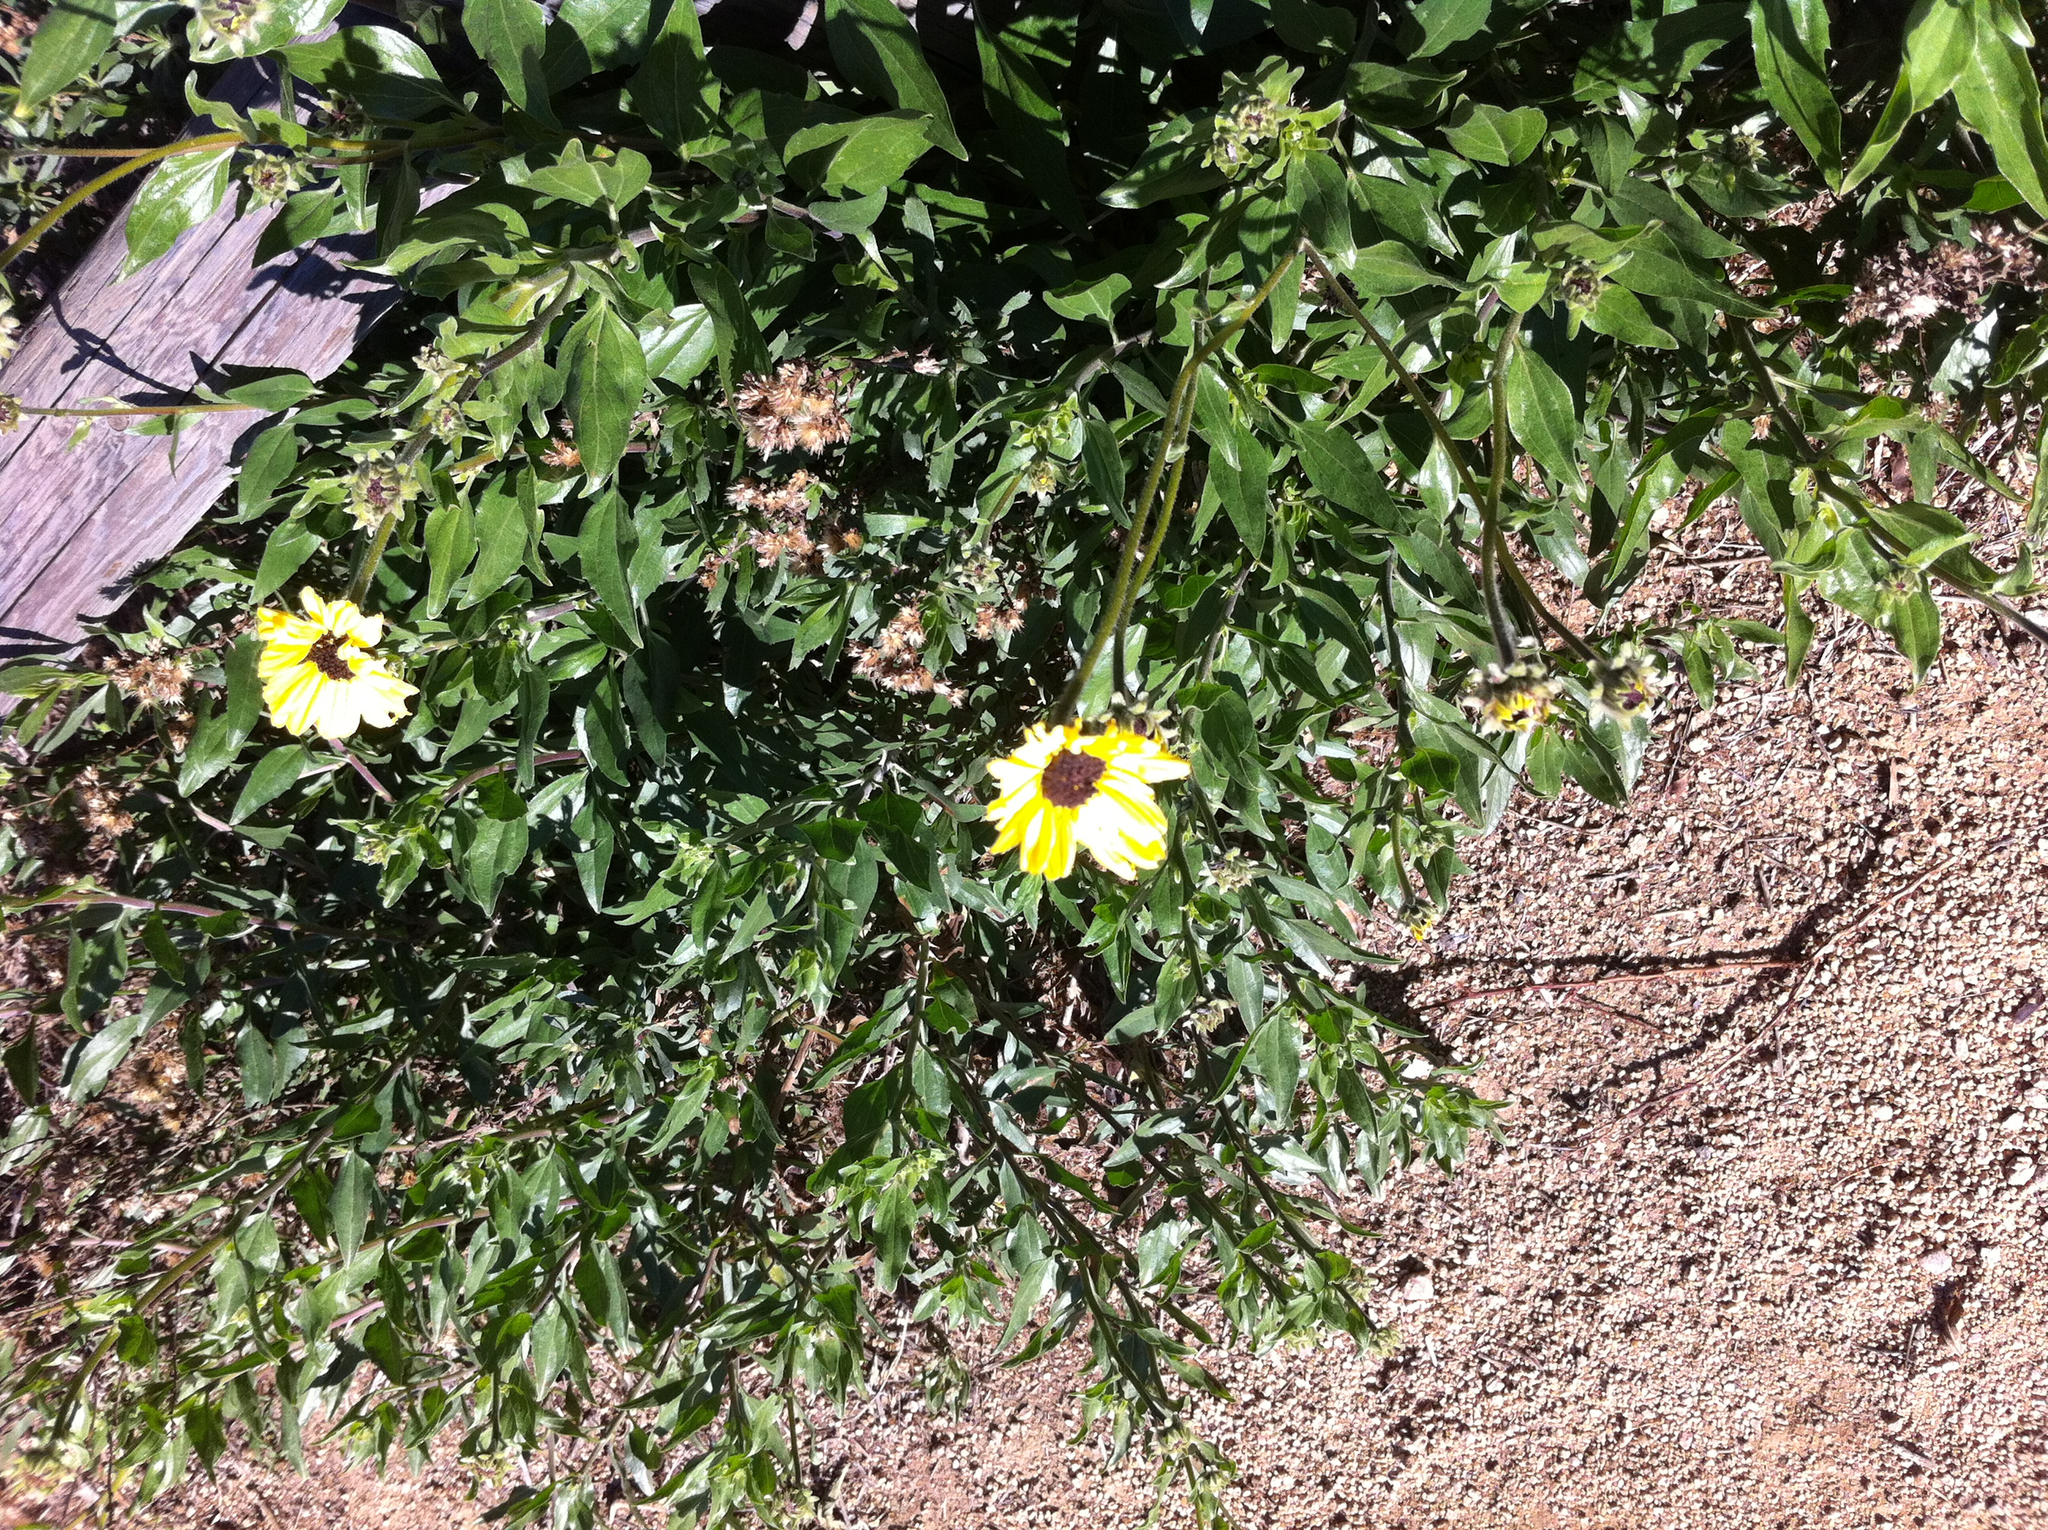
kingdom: Plantae
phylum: Tracheophyta
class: Magnoliopsida
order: Asterales
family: Asteraceae
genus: Encelia
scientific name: Encelia californica
